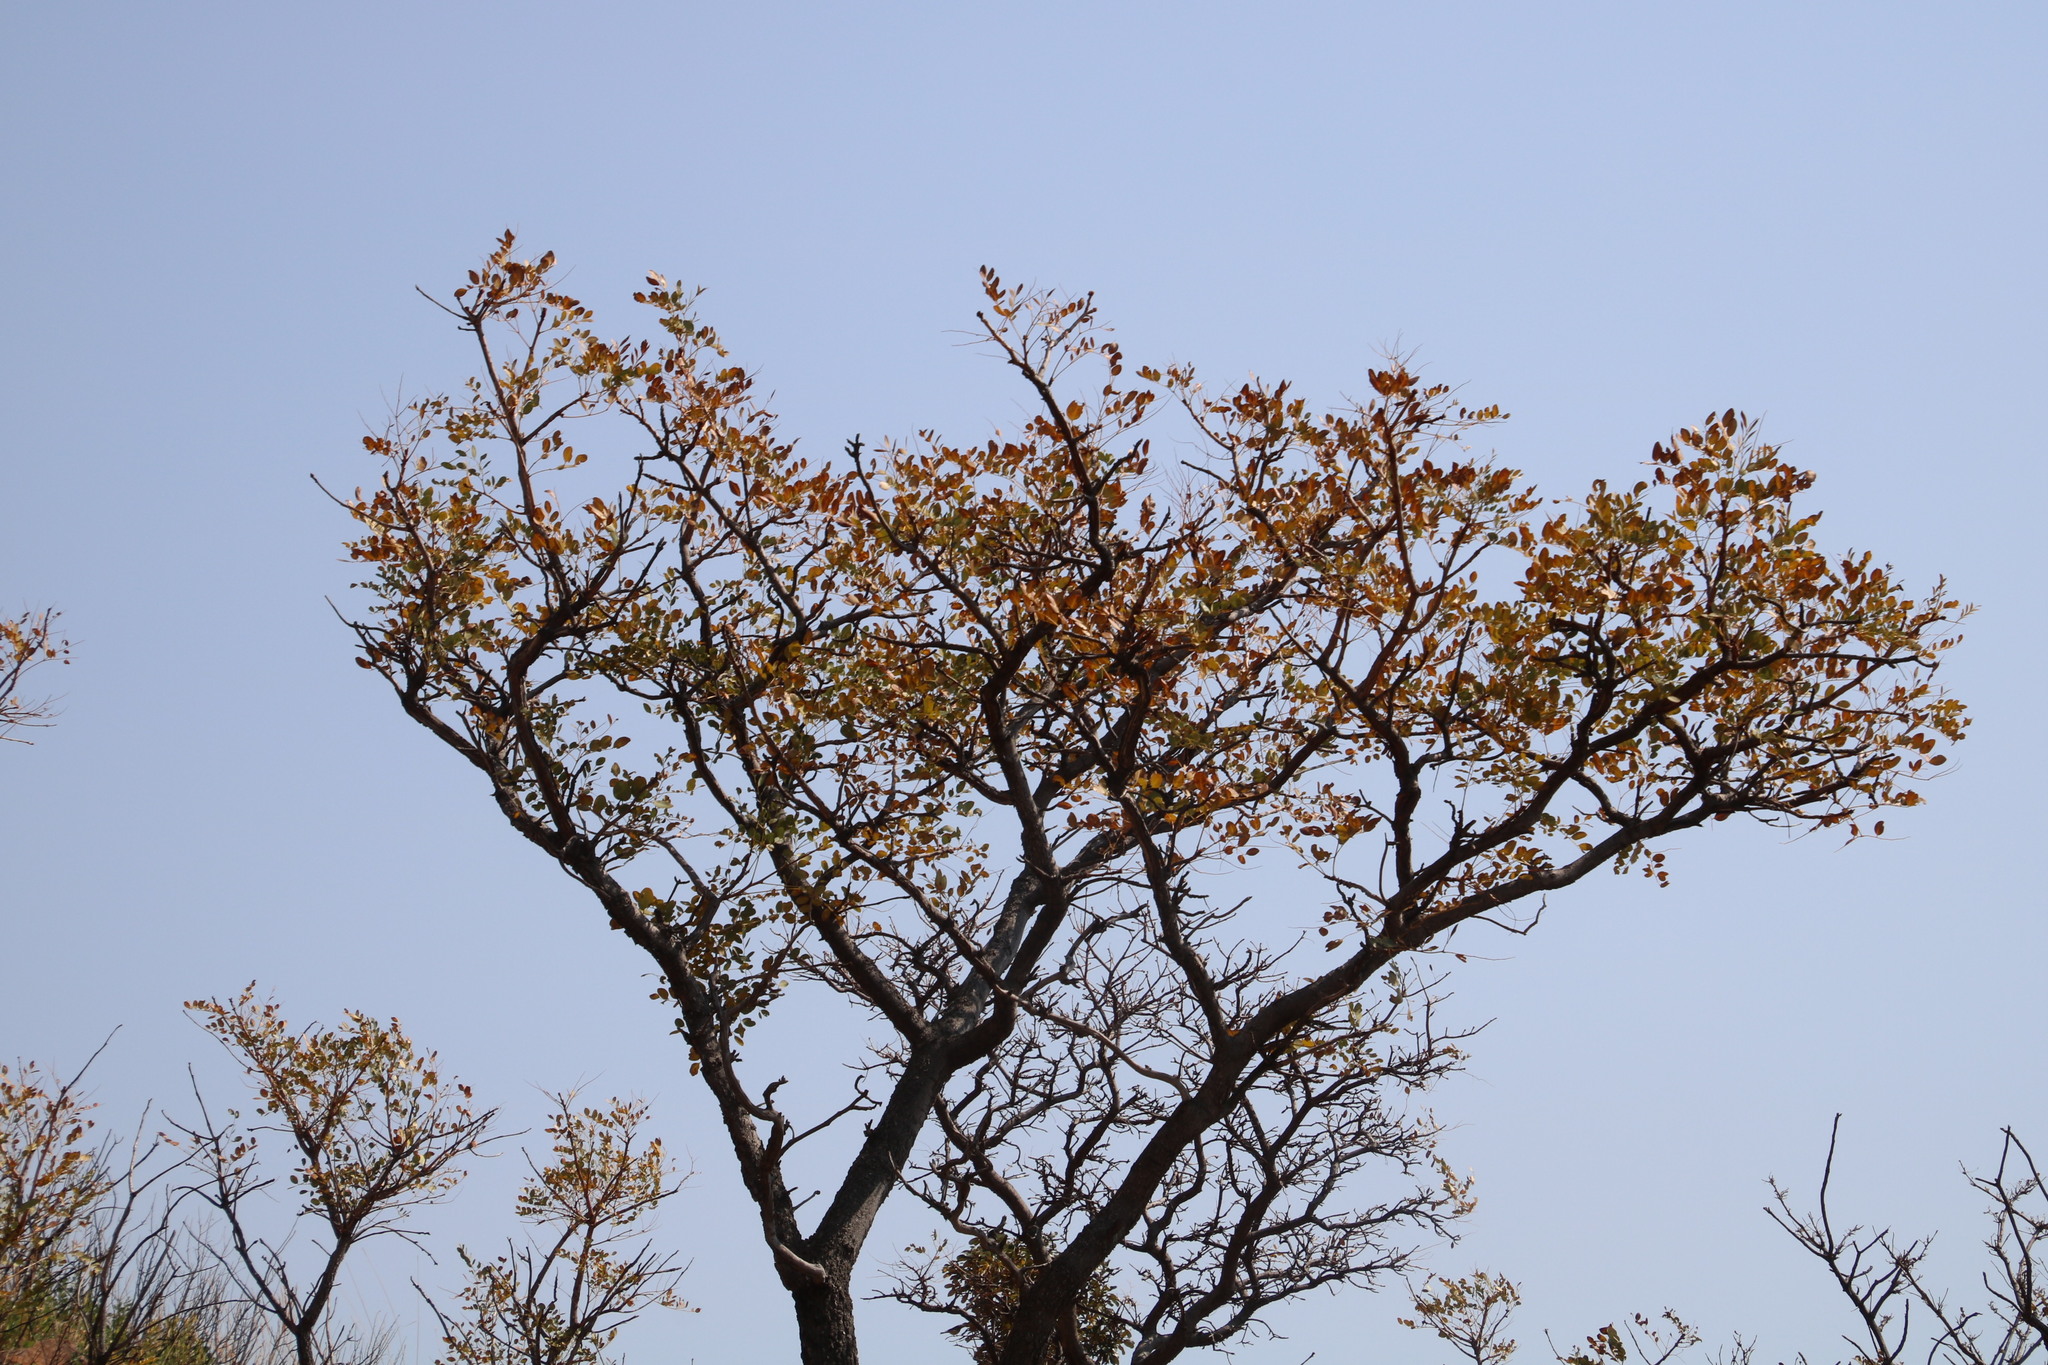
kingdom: Plantae
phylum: Tracheophyta
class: Magnoliopsida
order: Fabales
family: Fabaceae
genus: Burkea
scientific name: Burkea africana
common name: Mkalati tree
